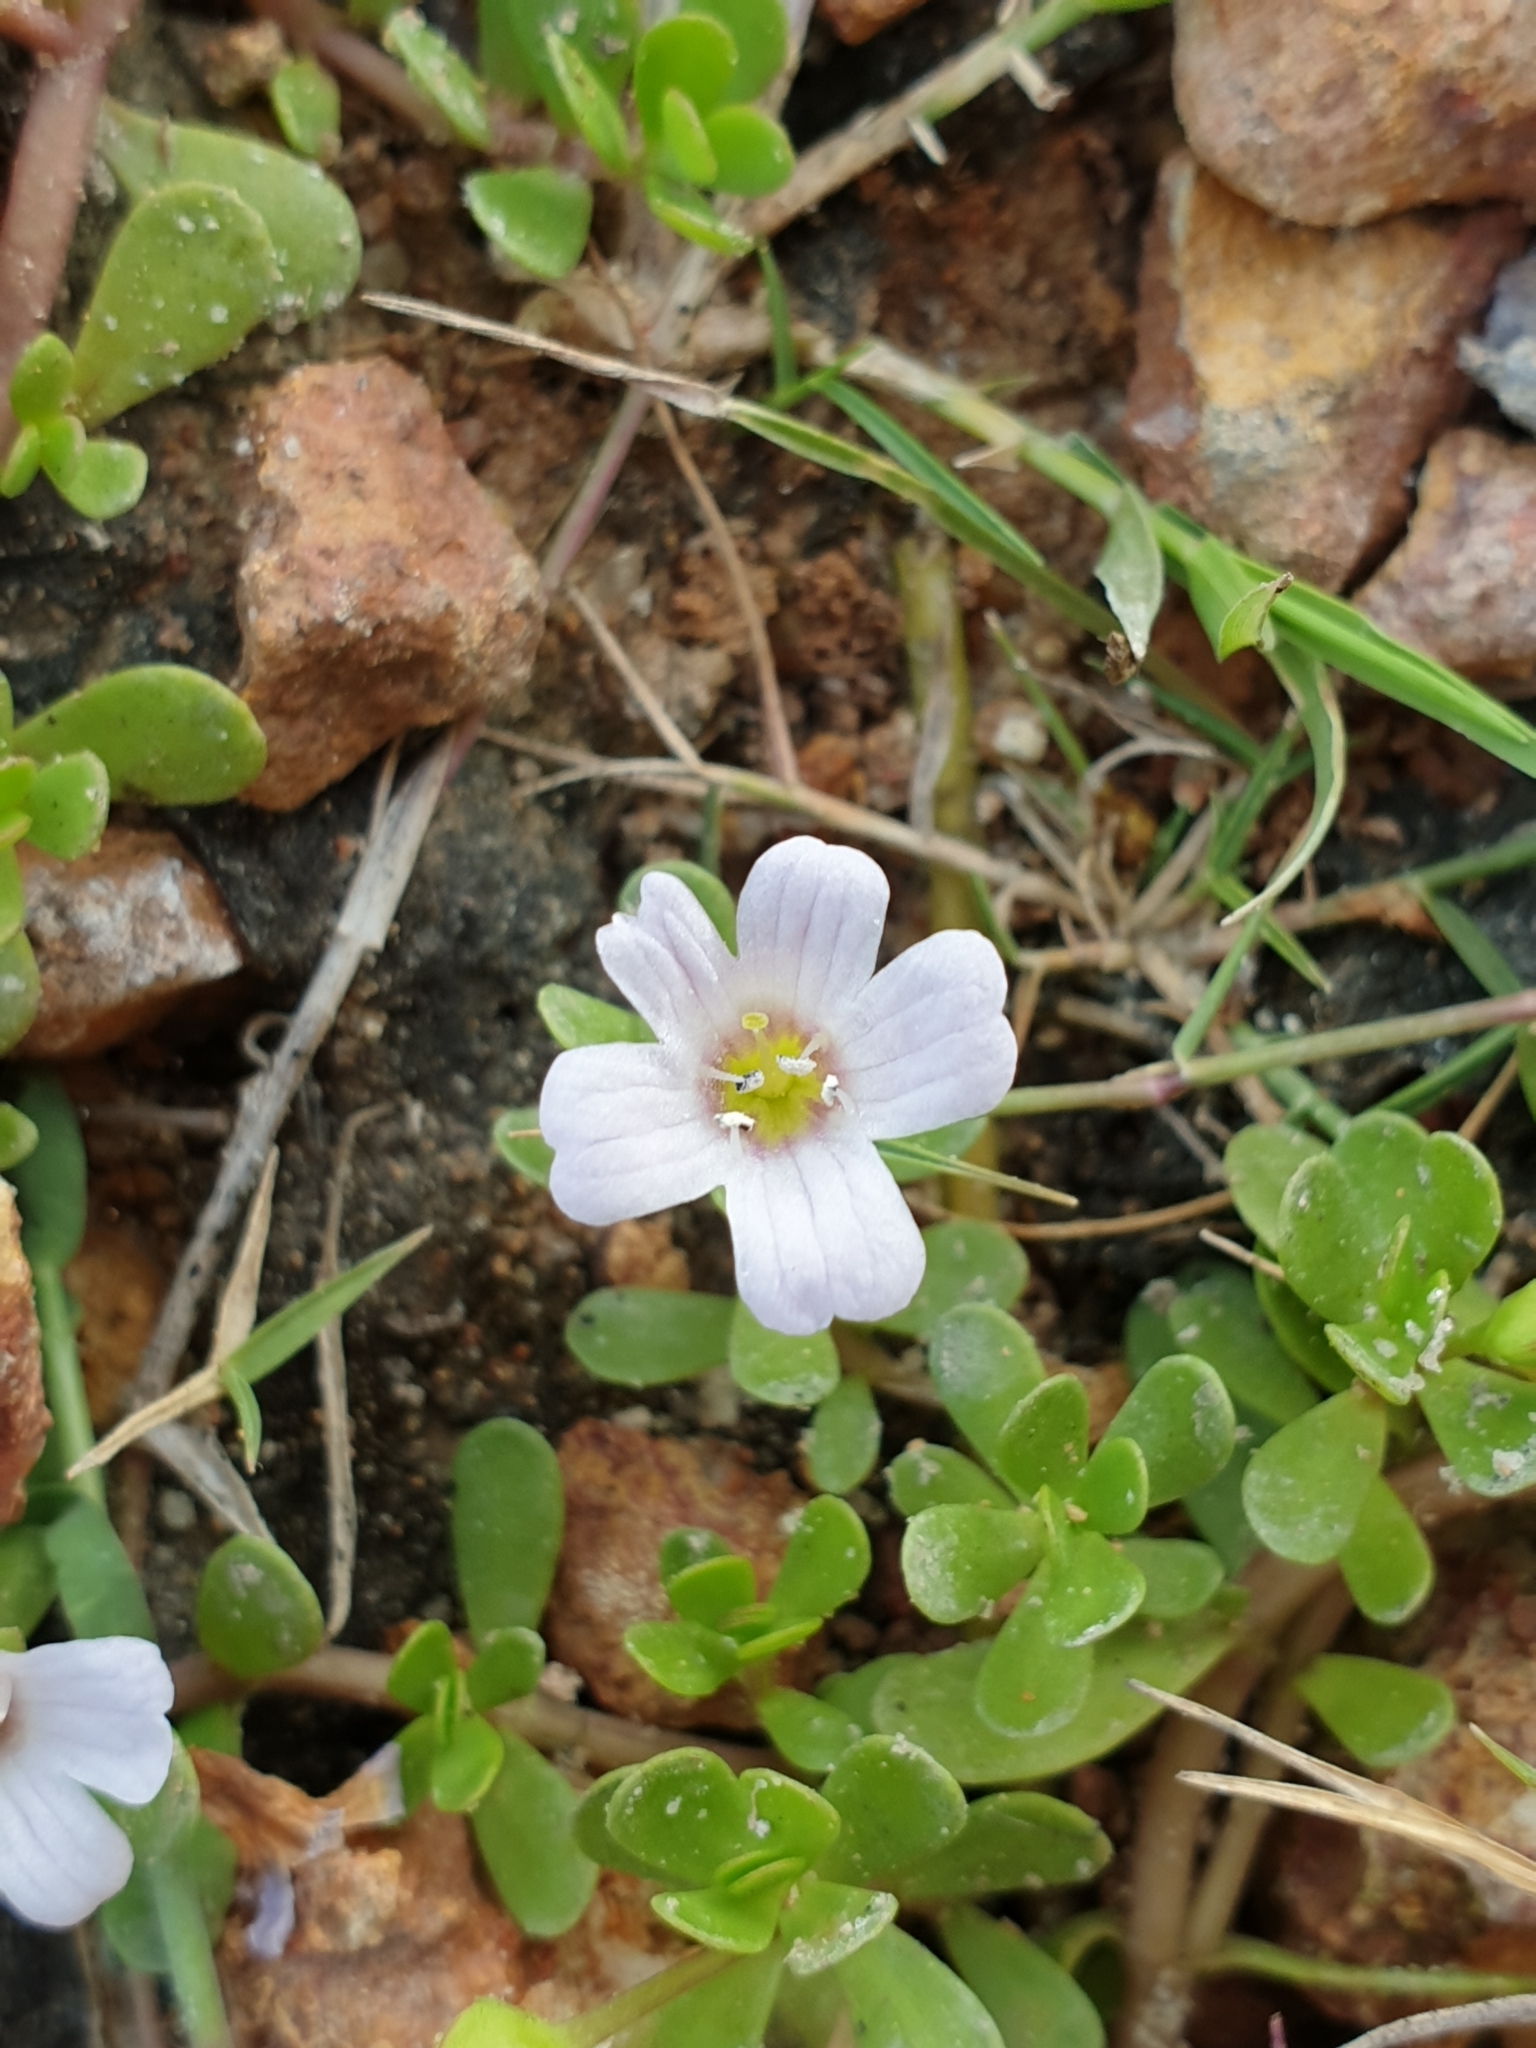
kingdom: Plantae
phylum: Tracheophyta
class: Magnoliopsida
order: Lamiales
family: Plantaginaceae
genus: Bacopa
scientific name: Bacopa monnieri
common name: Indian-pennywort
